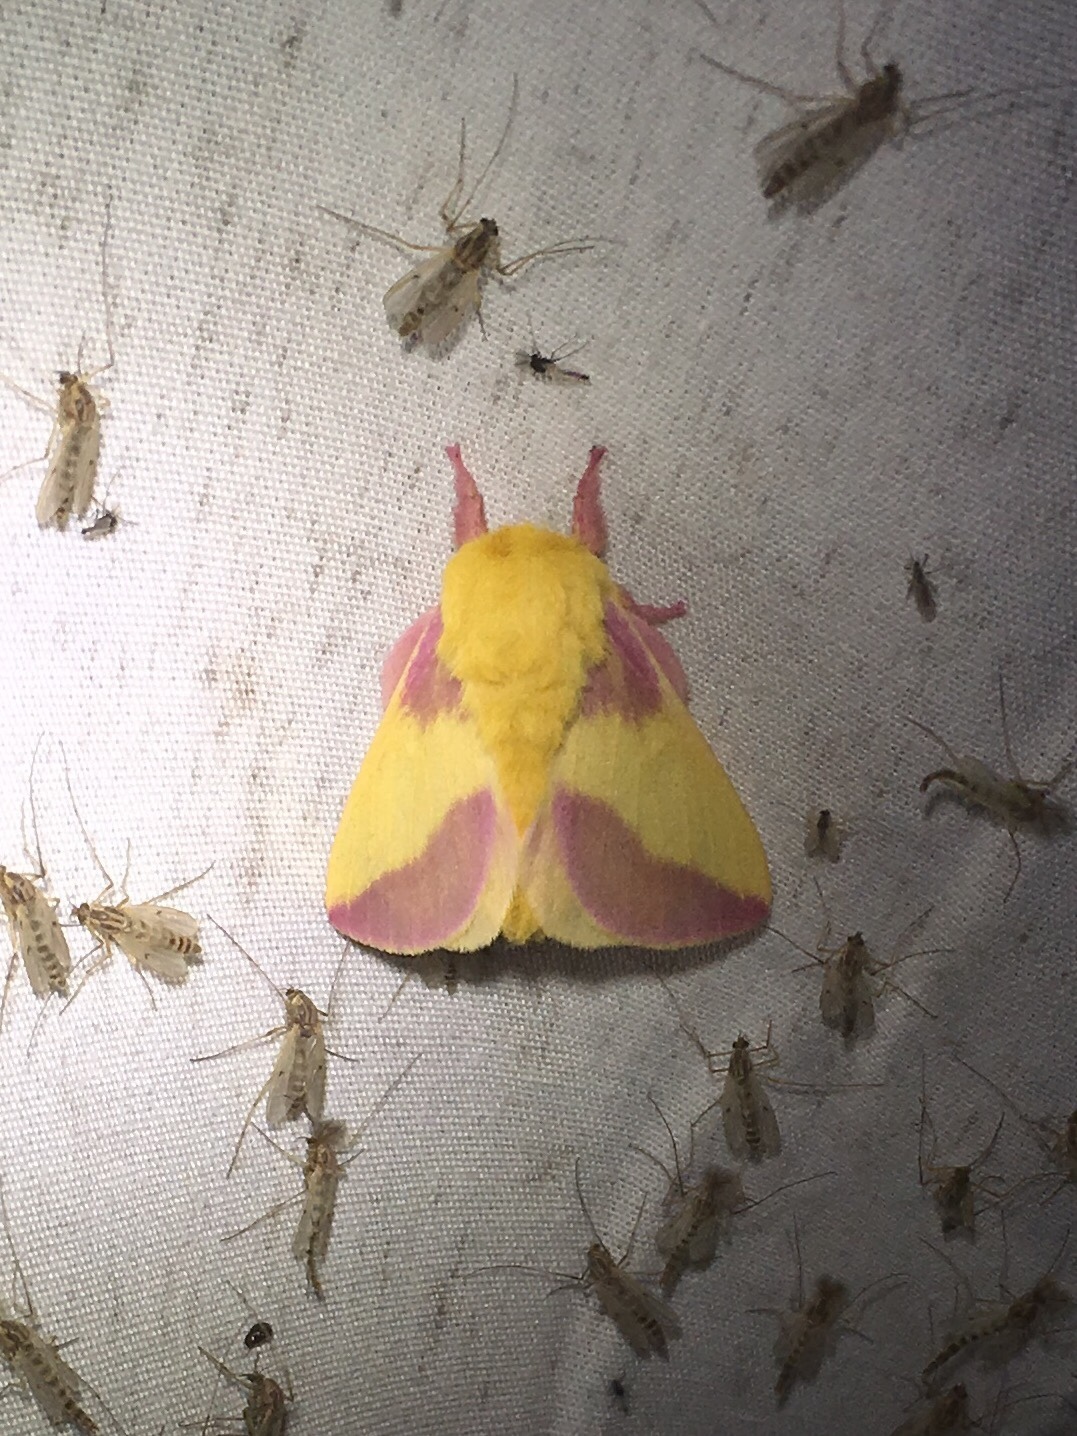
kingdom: Animalia
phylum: Arthropoda
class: Insecta
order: Lepidoptera
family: Saturniidae
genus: Dryocampa
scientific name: Dryocampa rubicunda
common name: Rosy maple moth
